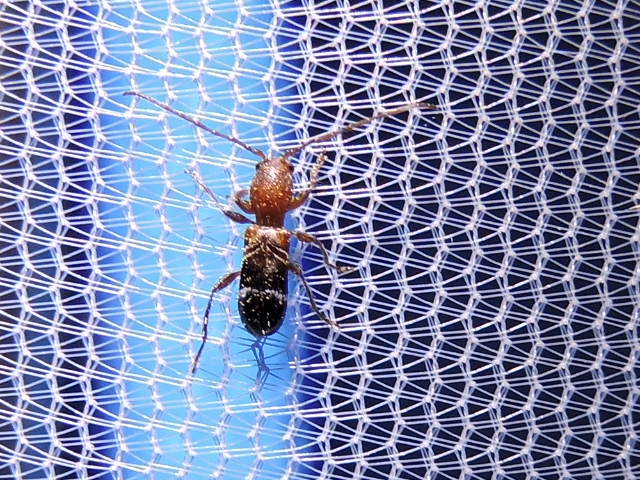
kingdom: Animalia
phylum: Arthropoda
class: Insecta
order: Coleoptera
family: Cerambycidae
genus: Tilloclytus
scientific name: Tilloclytus geminatus
